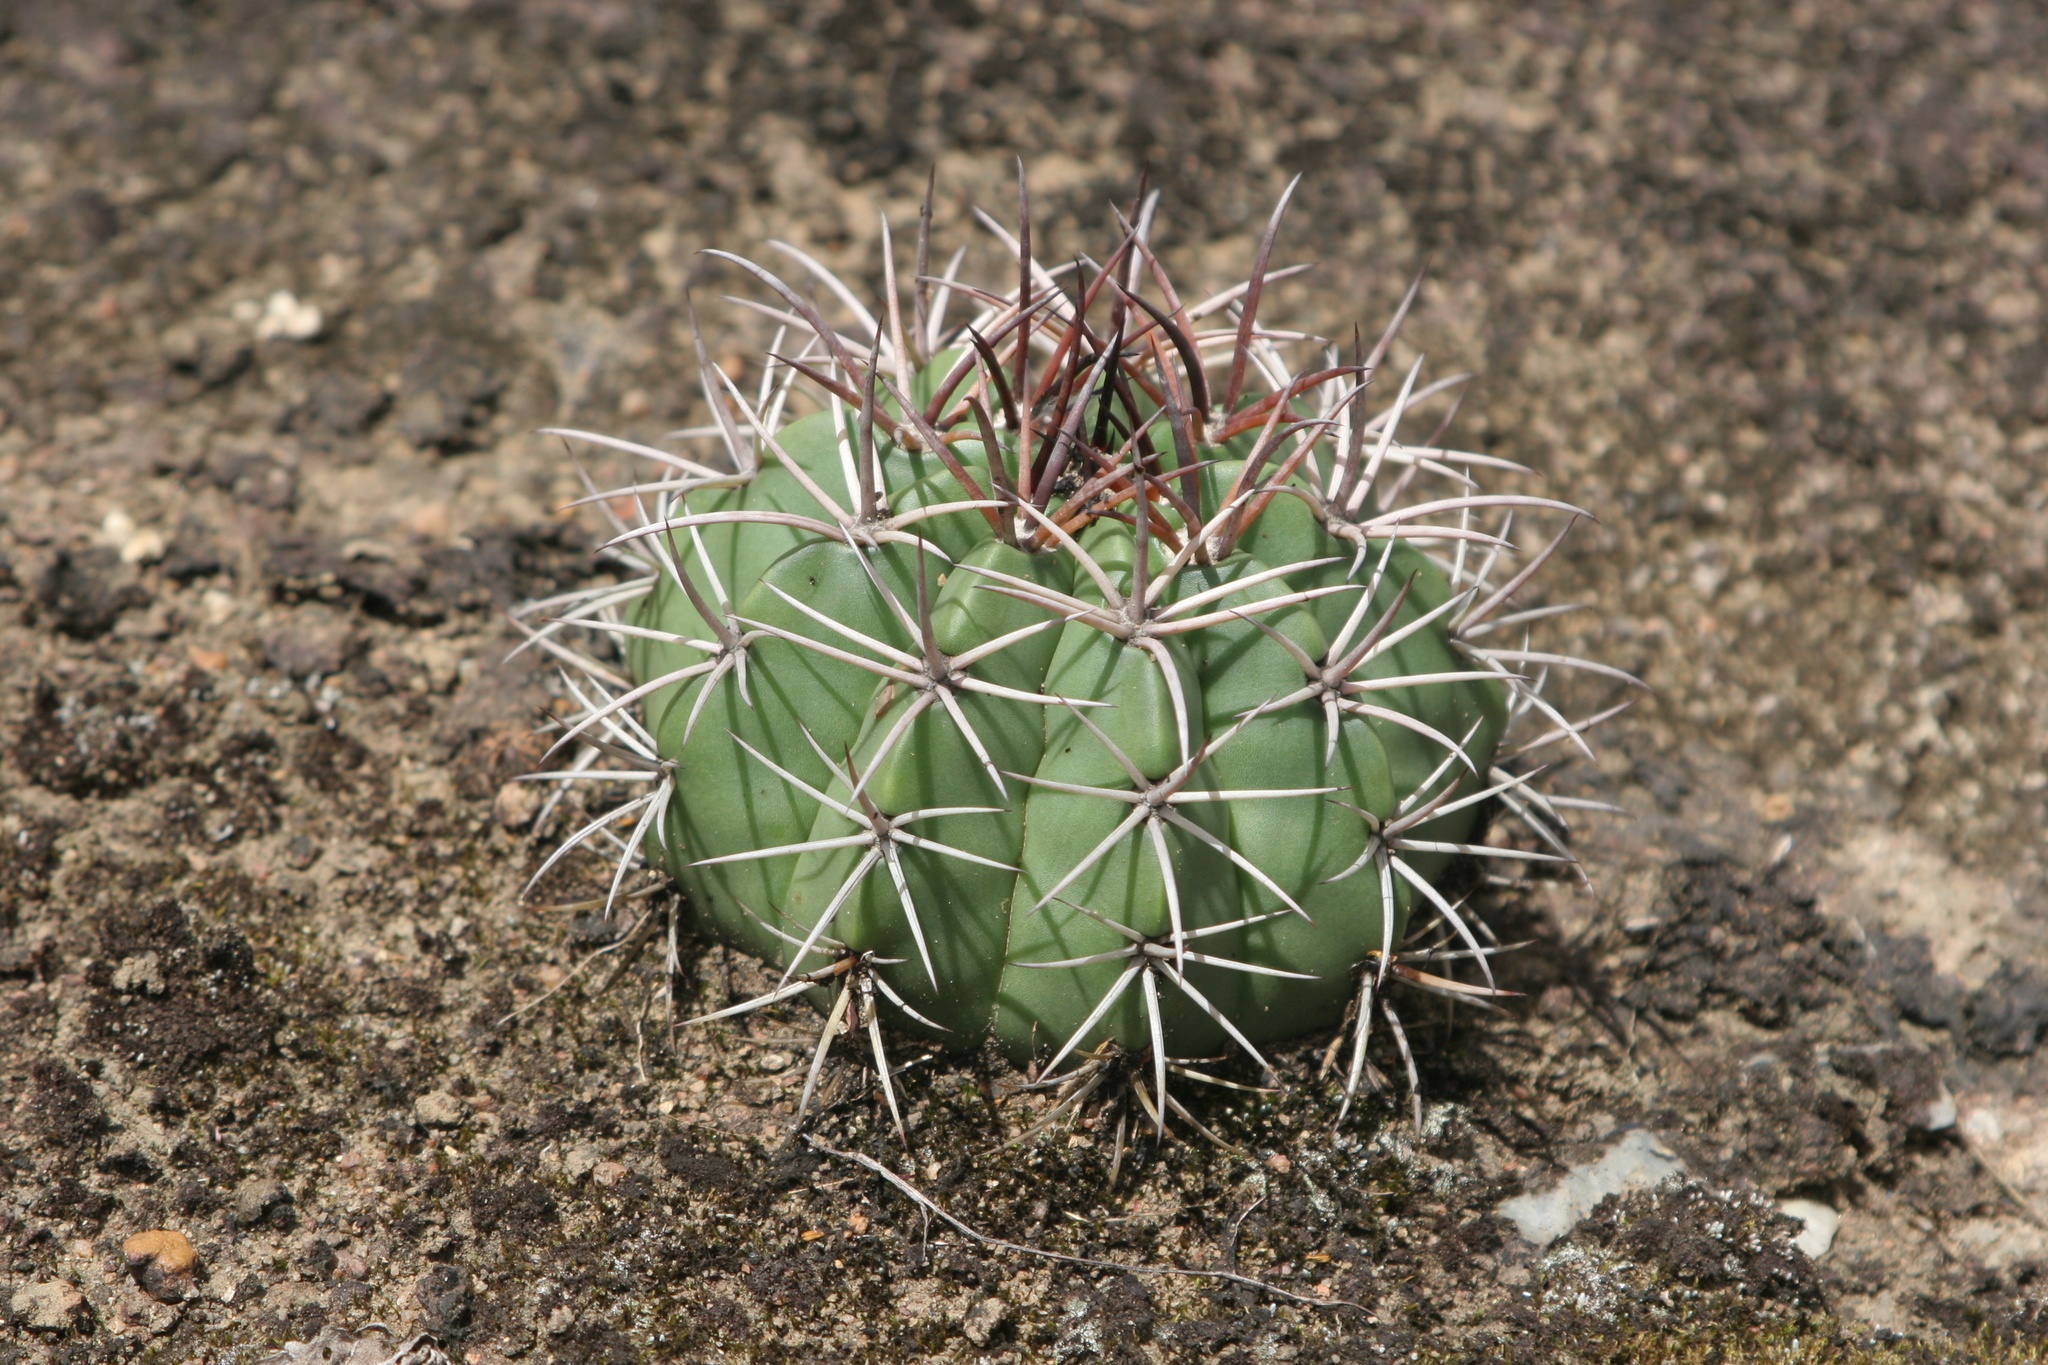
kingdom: Plantae
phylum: Tracheophyta
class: Magnoliopsida
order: Caryophyllales
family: Cactaceae
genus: Melocactus
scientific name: Melocactus neryi
